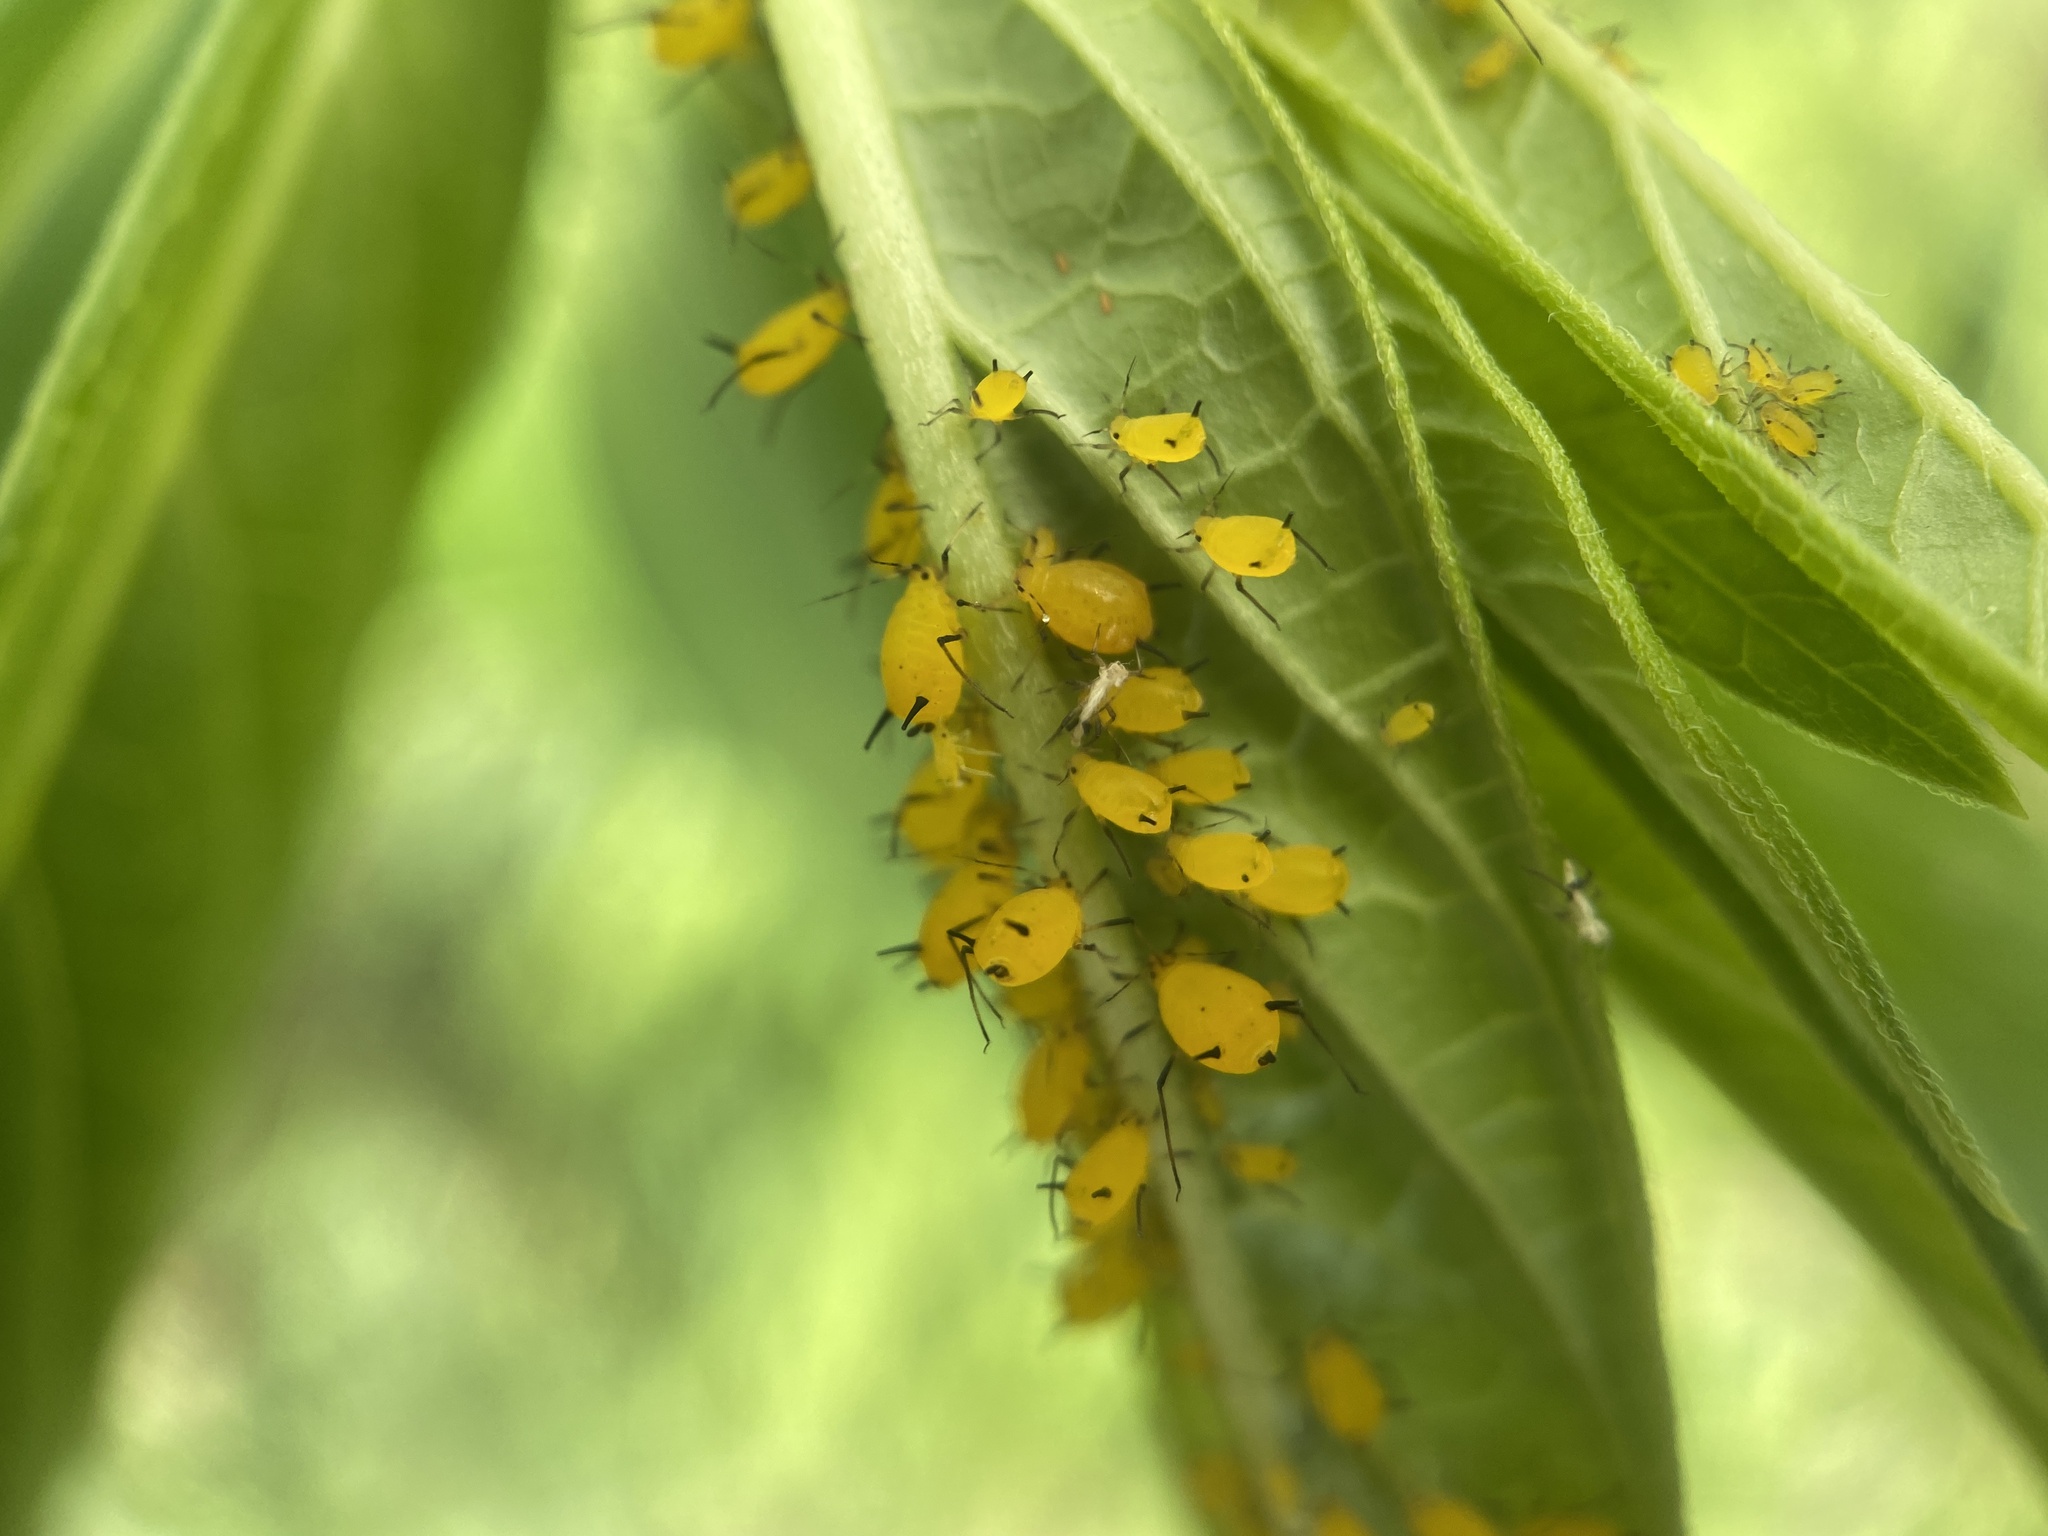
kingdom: Animalia
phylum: Arthropoda
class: Insecta
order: Hemiptera
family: Aphididae
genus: Aphis
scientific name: Aphis nerii
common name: Oleander aphid
